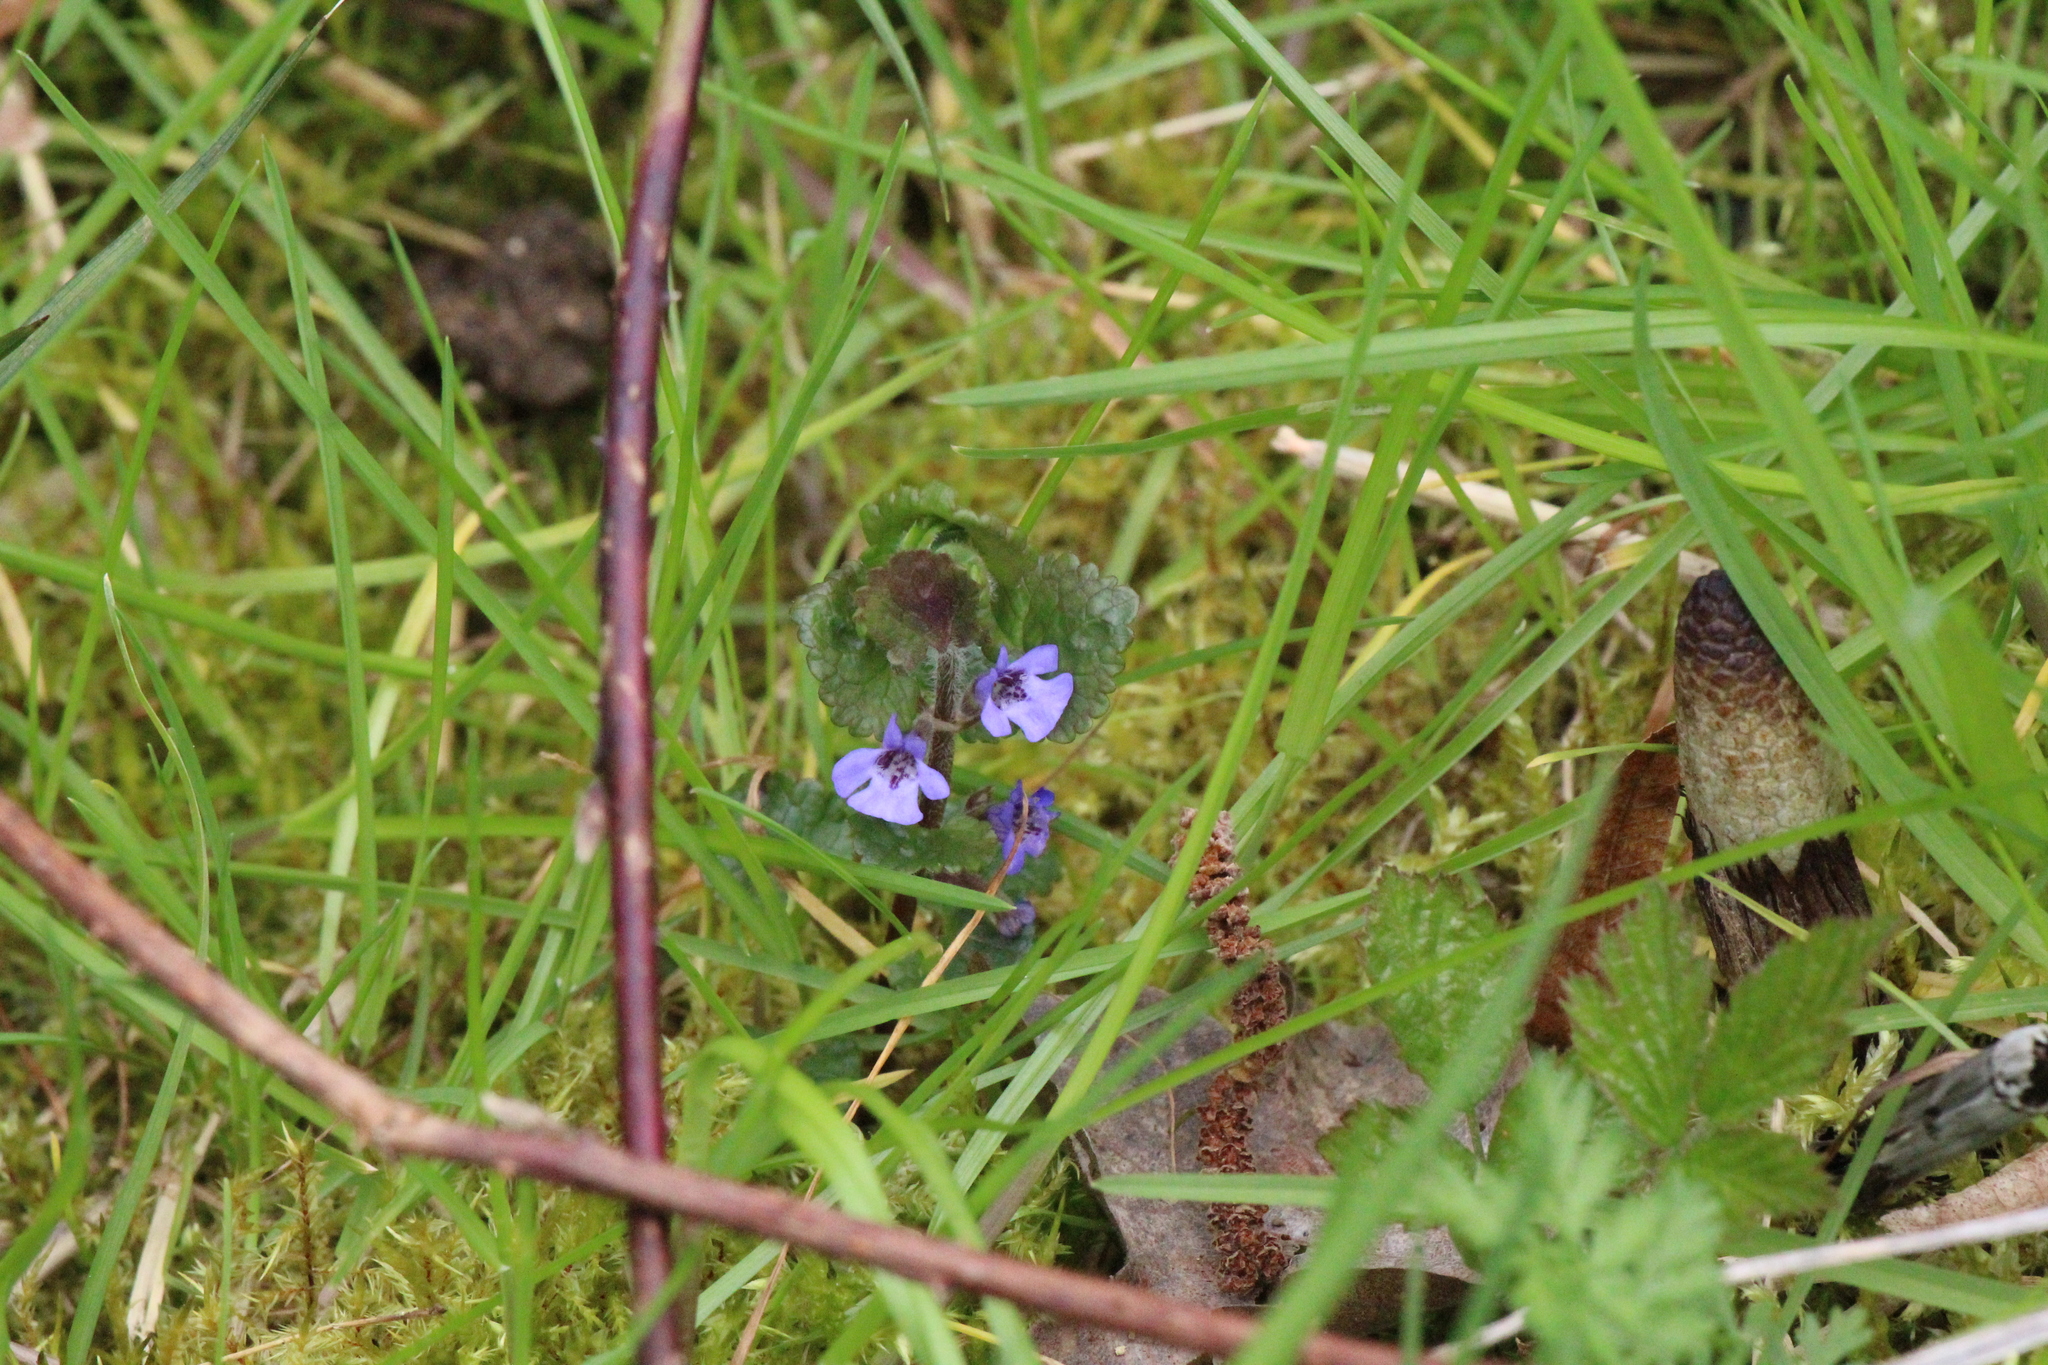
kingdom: Plantae
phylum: Tracheophyta
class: Magnoliopsida
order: Lamiales
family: Lamiaceae
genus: Glechoma
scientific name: Glechoma hederacea
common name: Ground ivy
